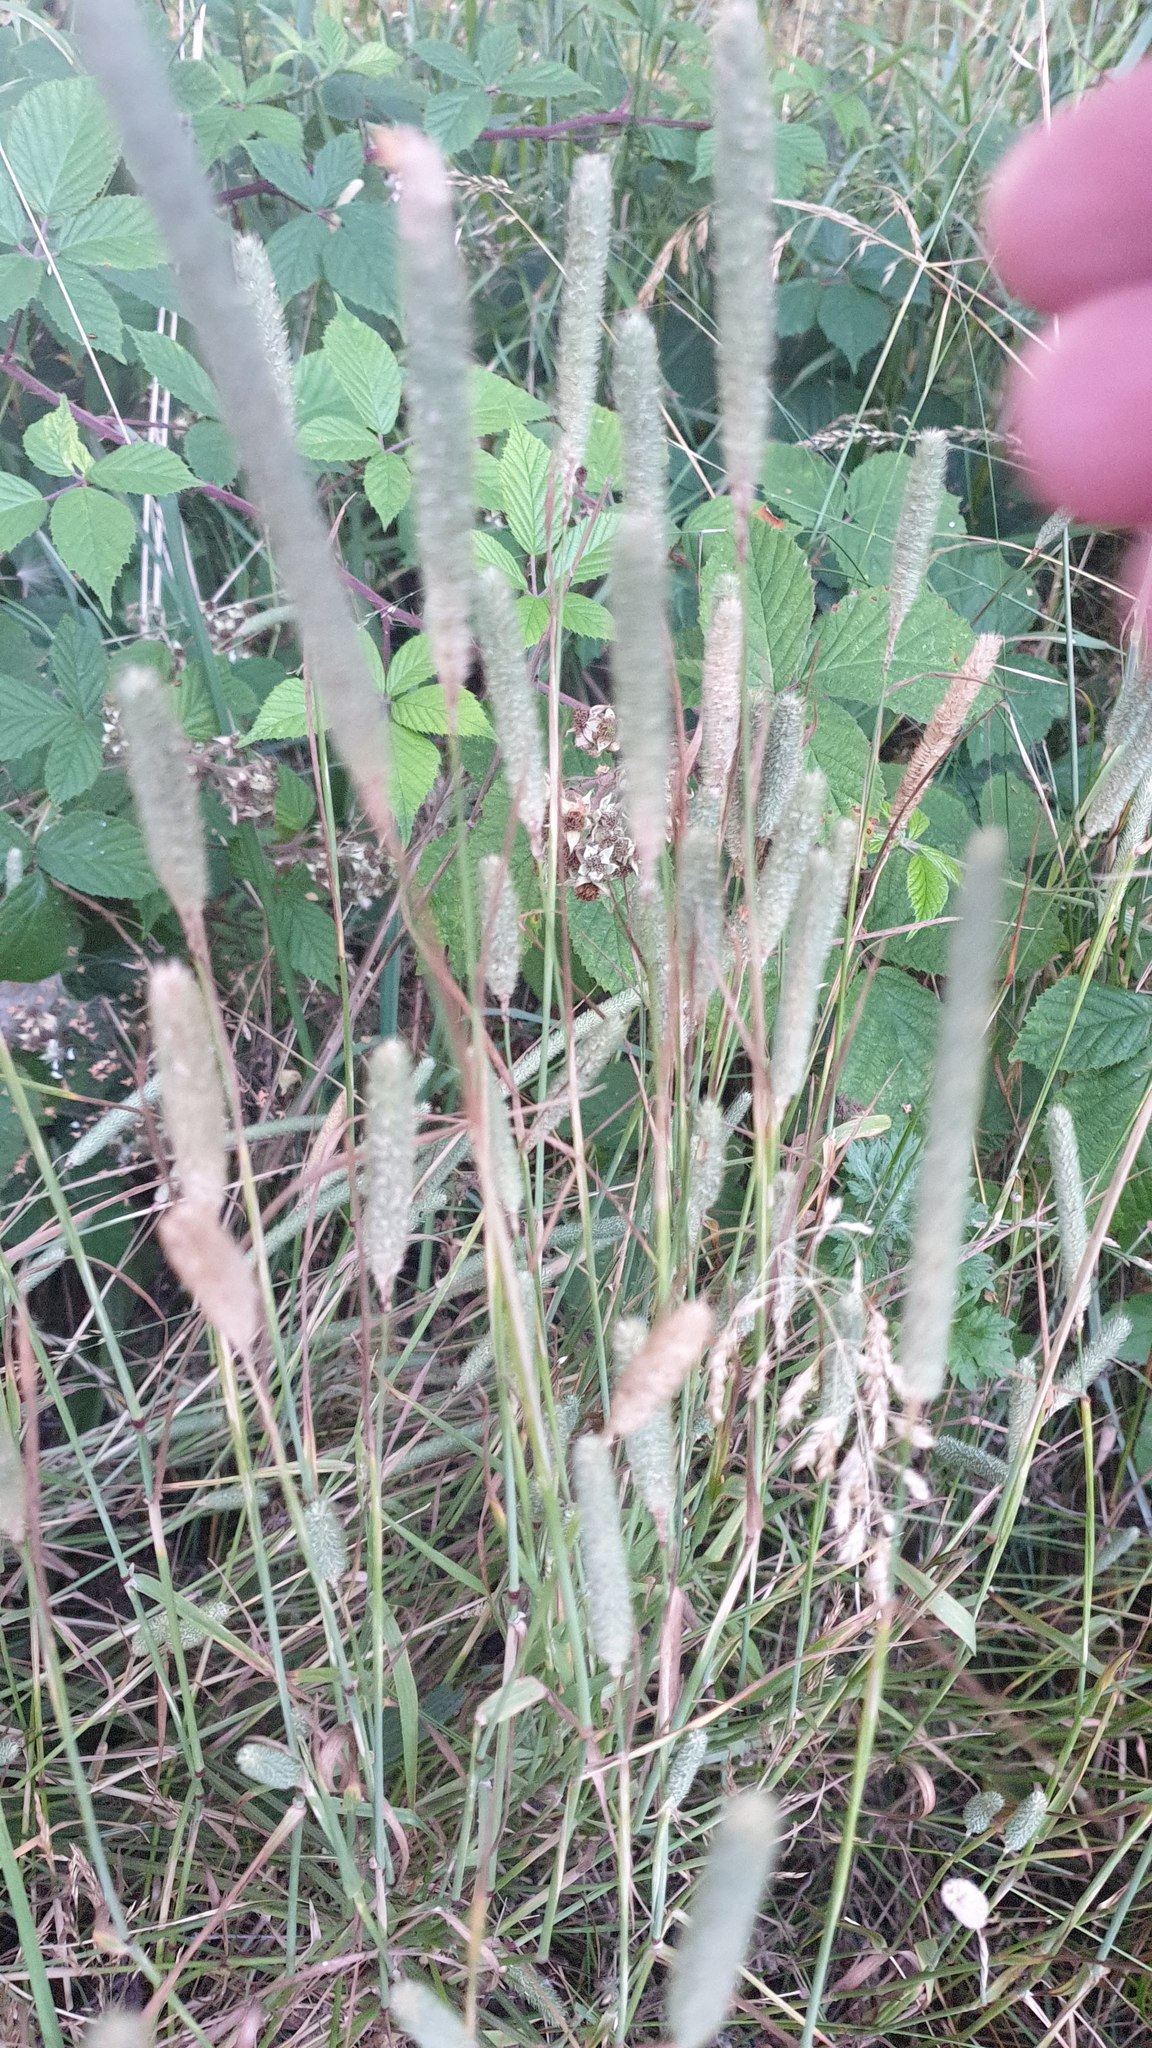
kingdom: Plantae
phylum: Tracheophyta
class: Liliopsida
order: Poales
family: Poaceae
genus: Phleum
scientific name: Phleum pratense
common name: Timothy grass
